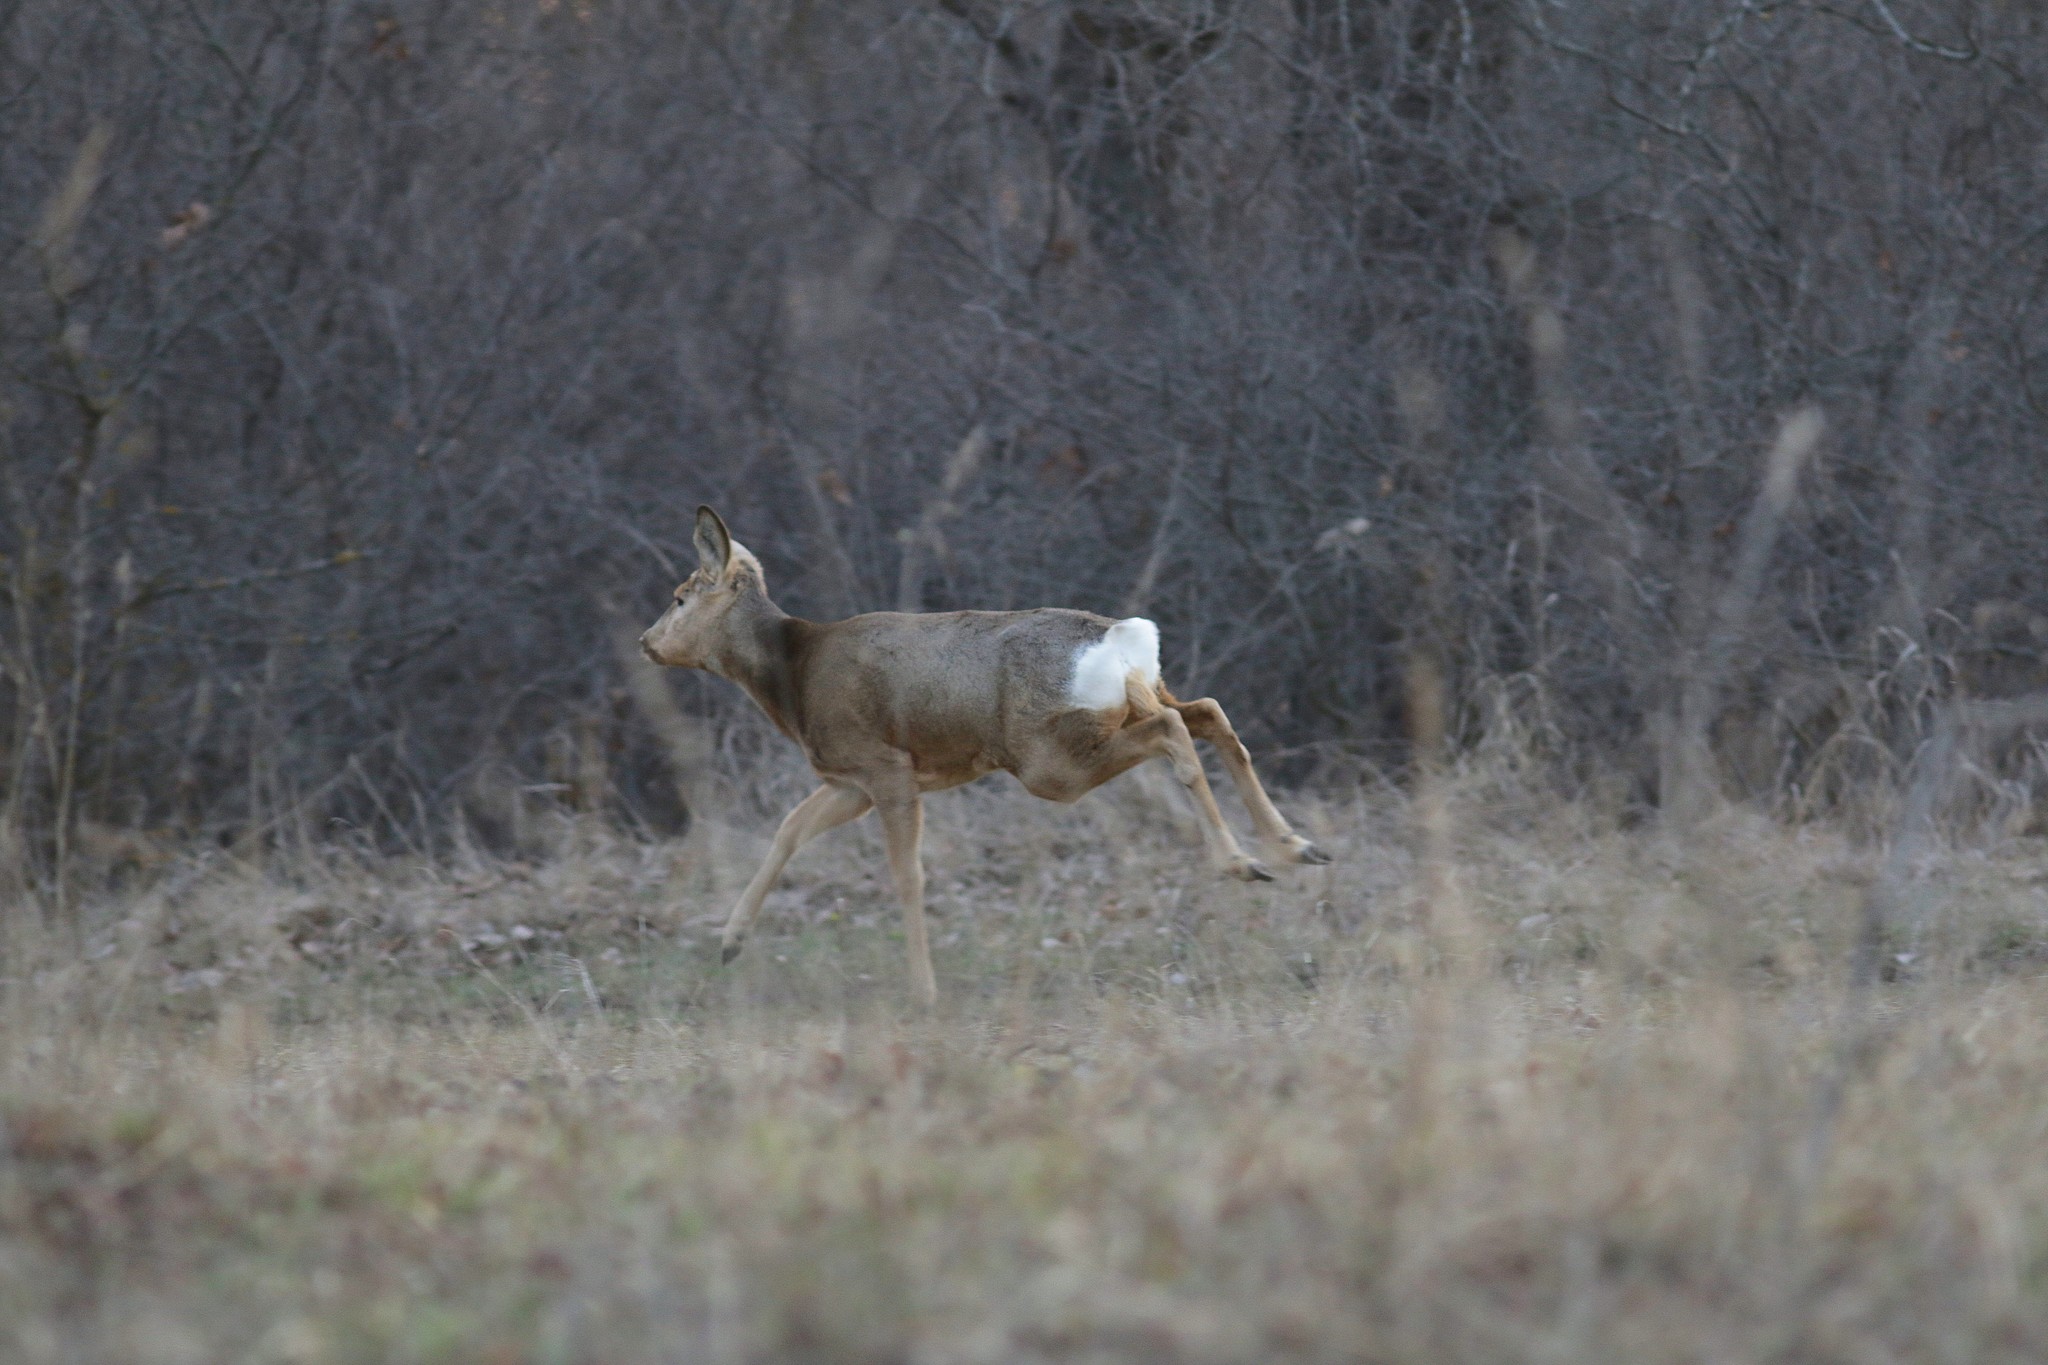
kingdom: Animalia
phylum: Chordata
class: Mammalia
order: Artiodactyla
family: Cervidae
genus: Capreolus
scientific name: Capreolus pygargus
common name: Siberian roe
